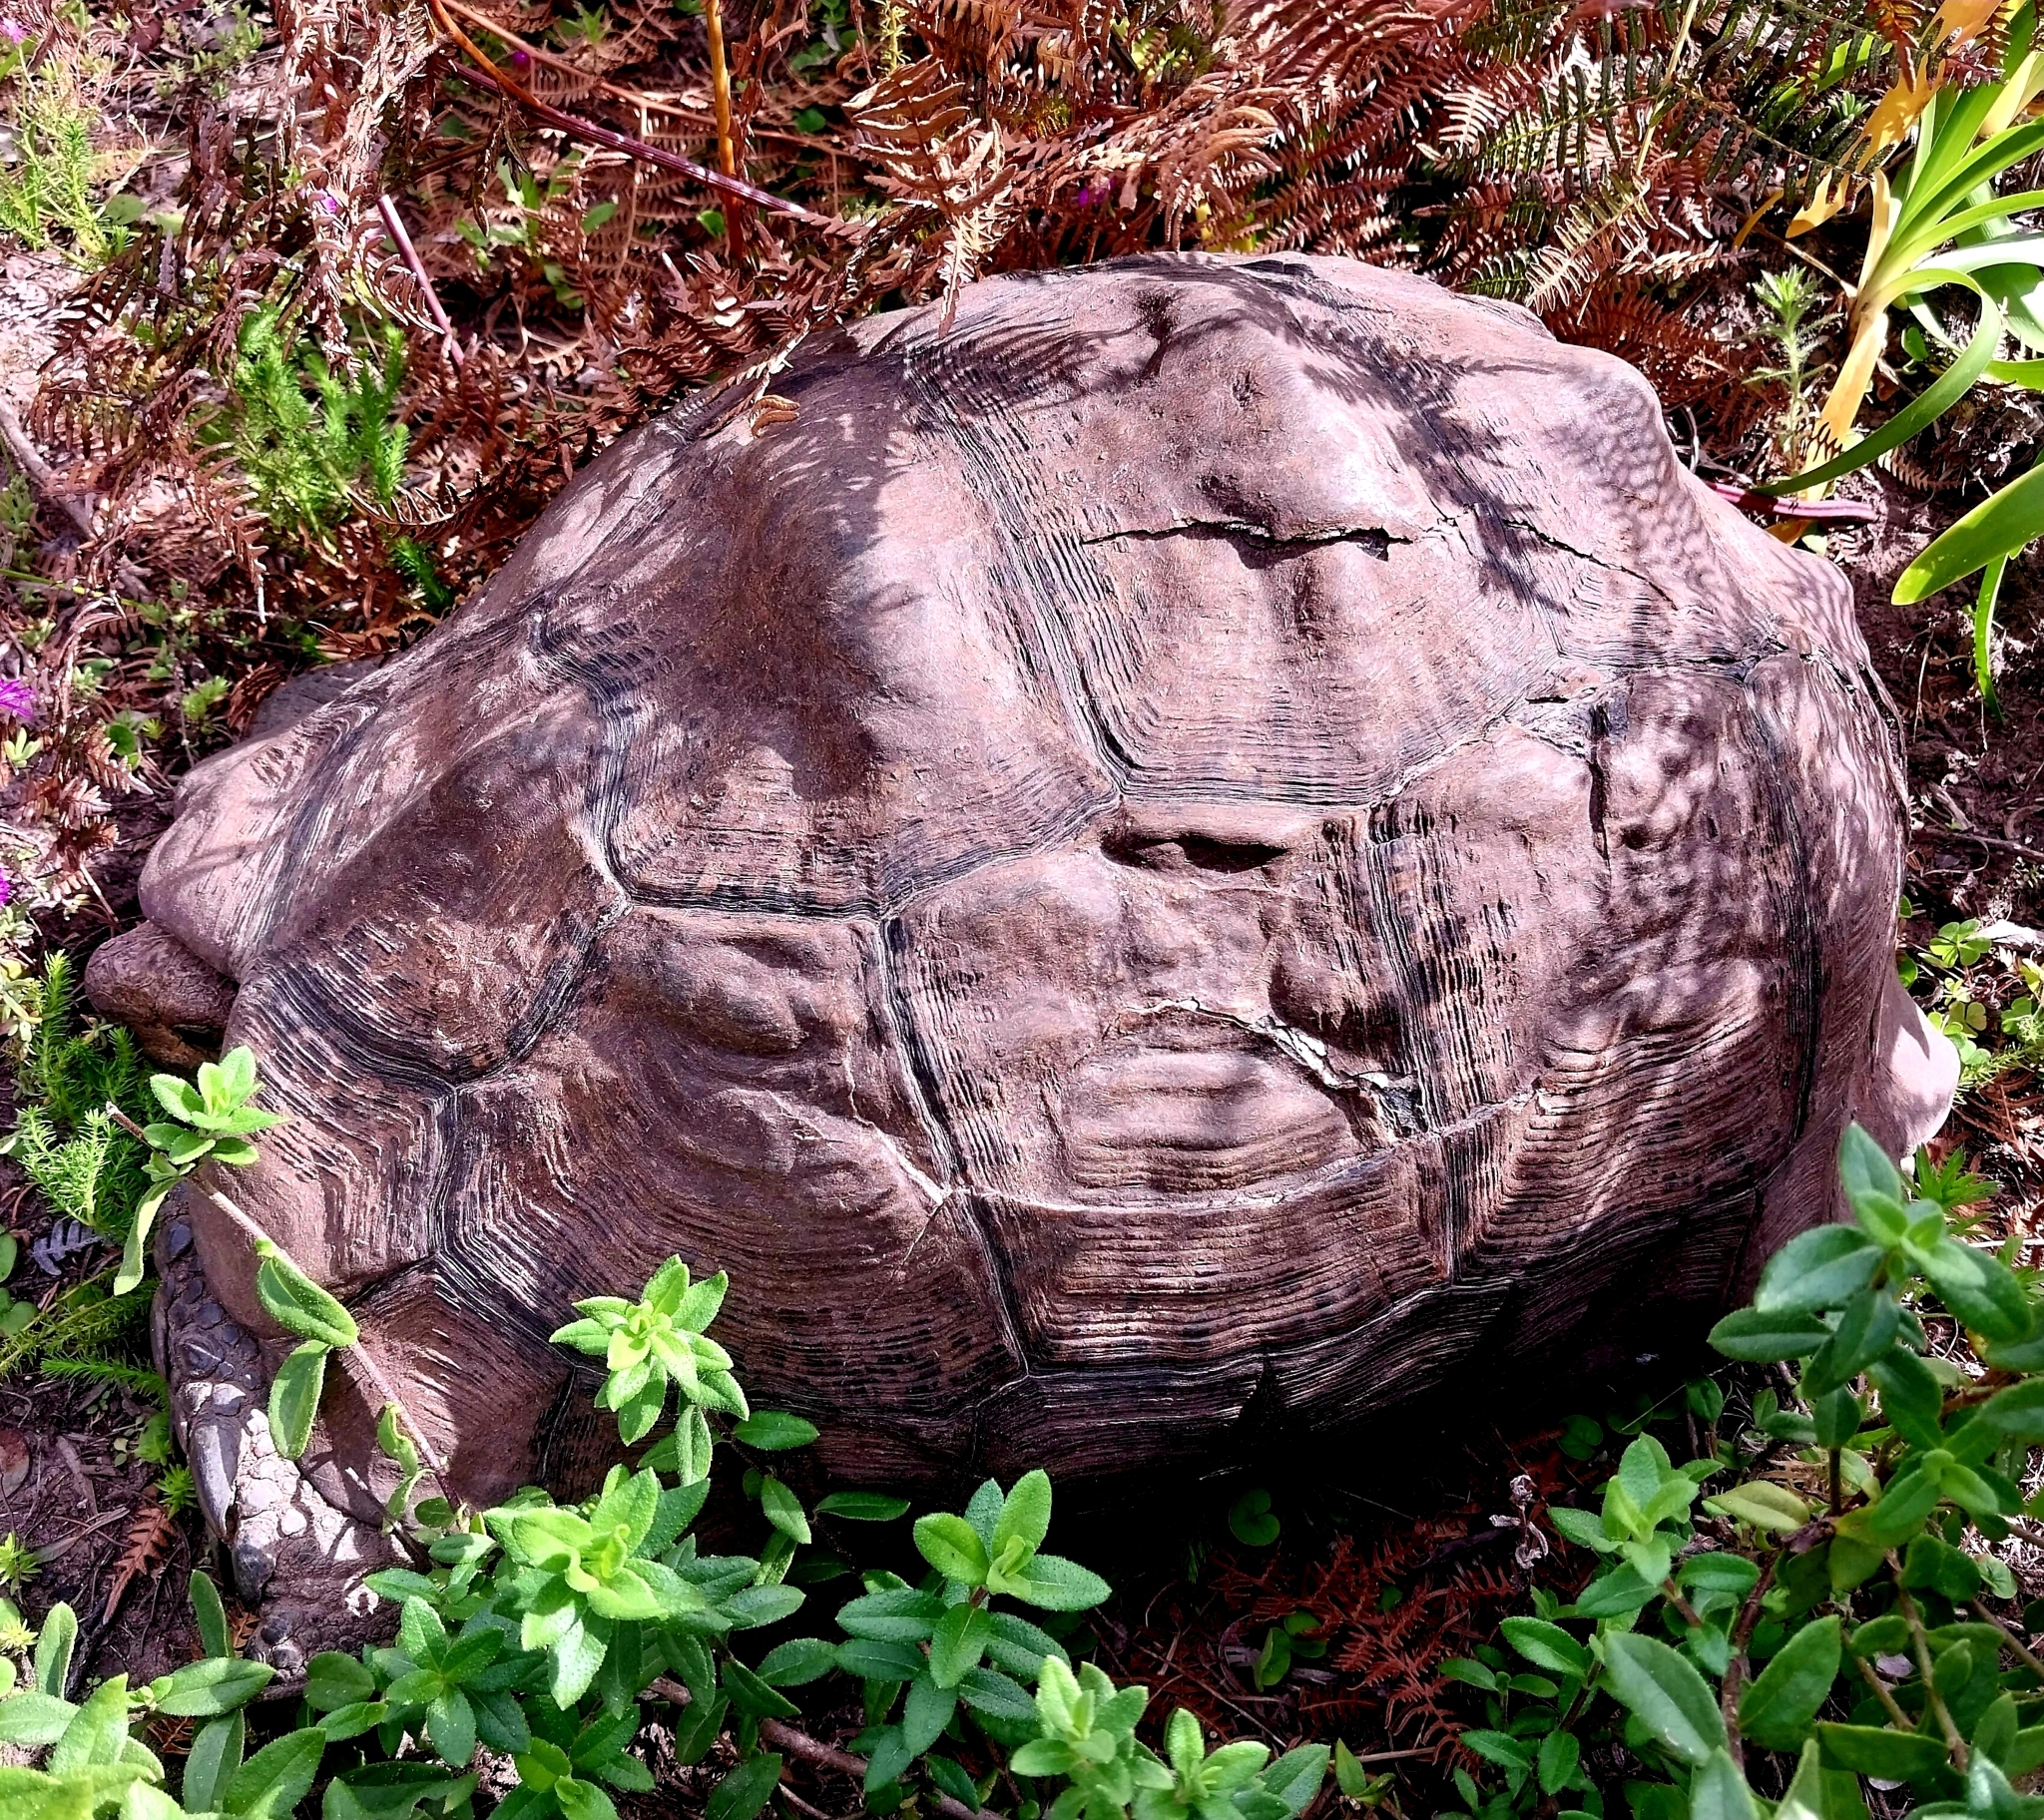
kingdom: Animalia
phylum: Chordata
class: Testudines
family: Testudinidae
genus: Stigmochelys
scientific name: Stigmochelys pardalis
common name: Leopard tortoise
